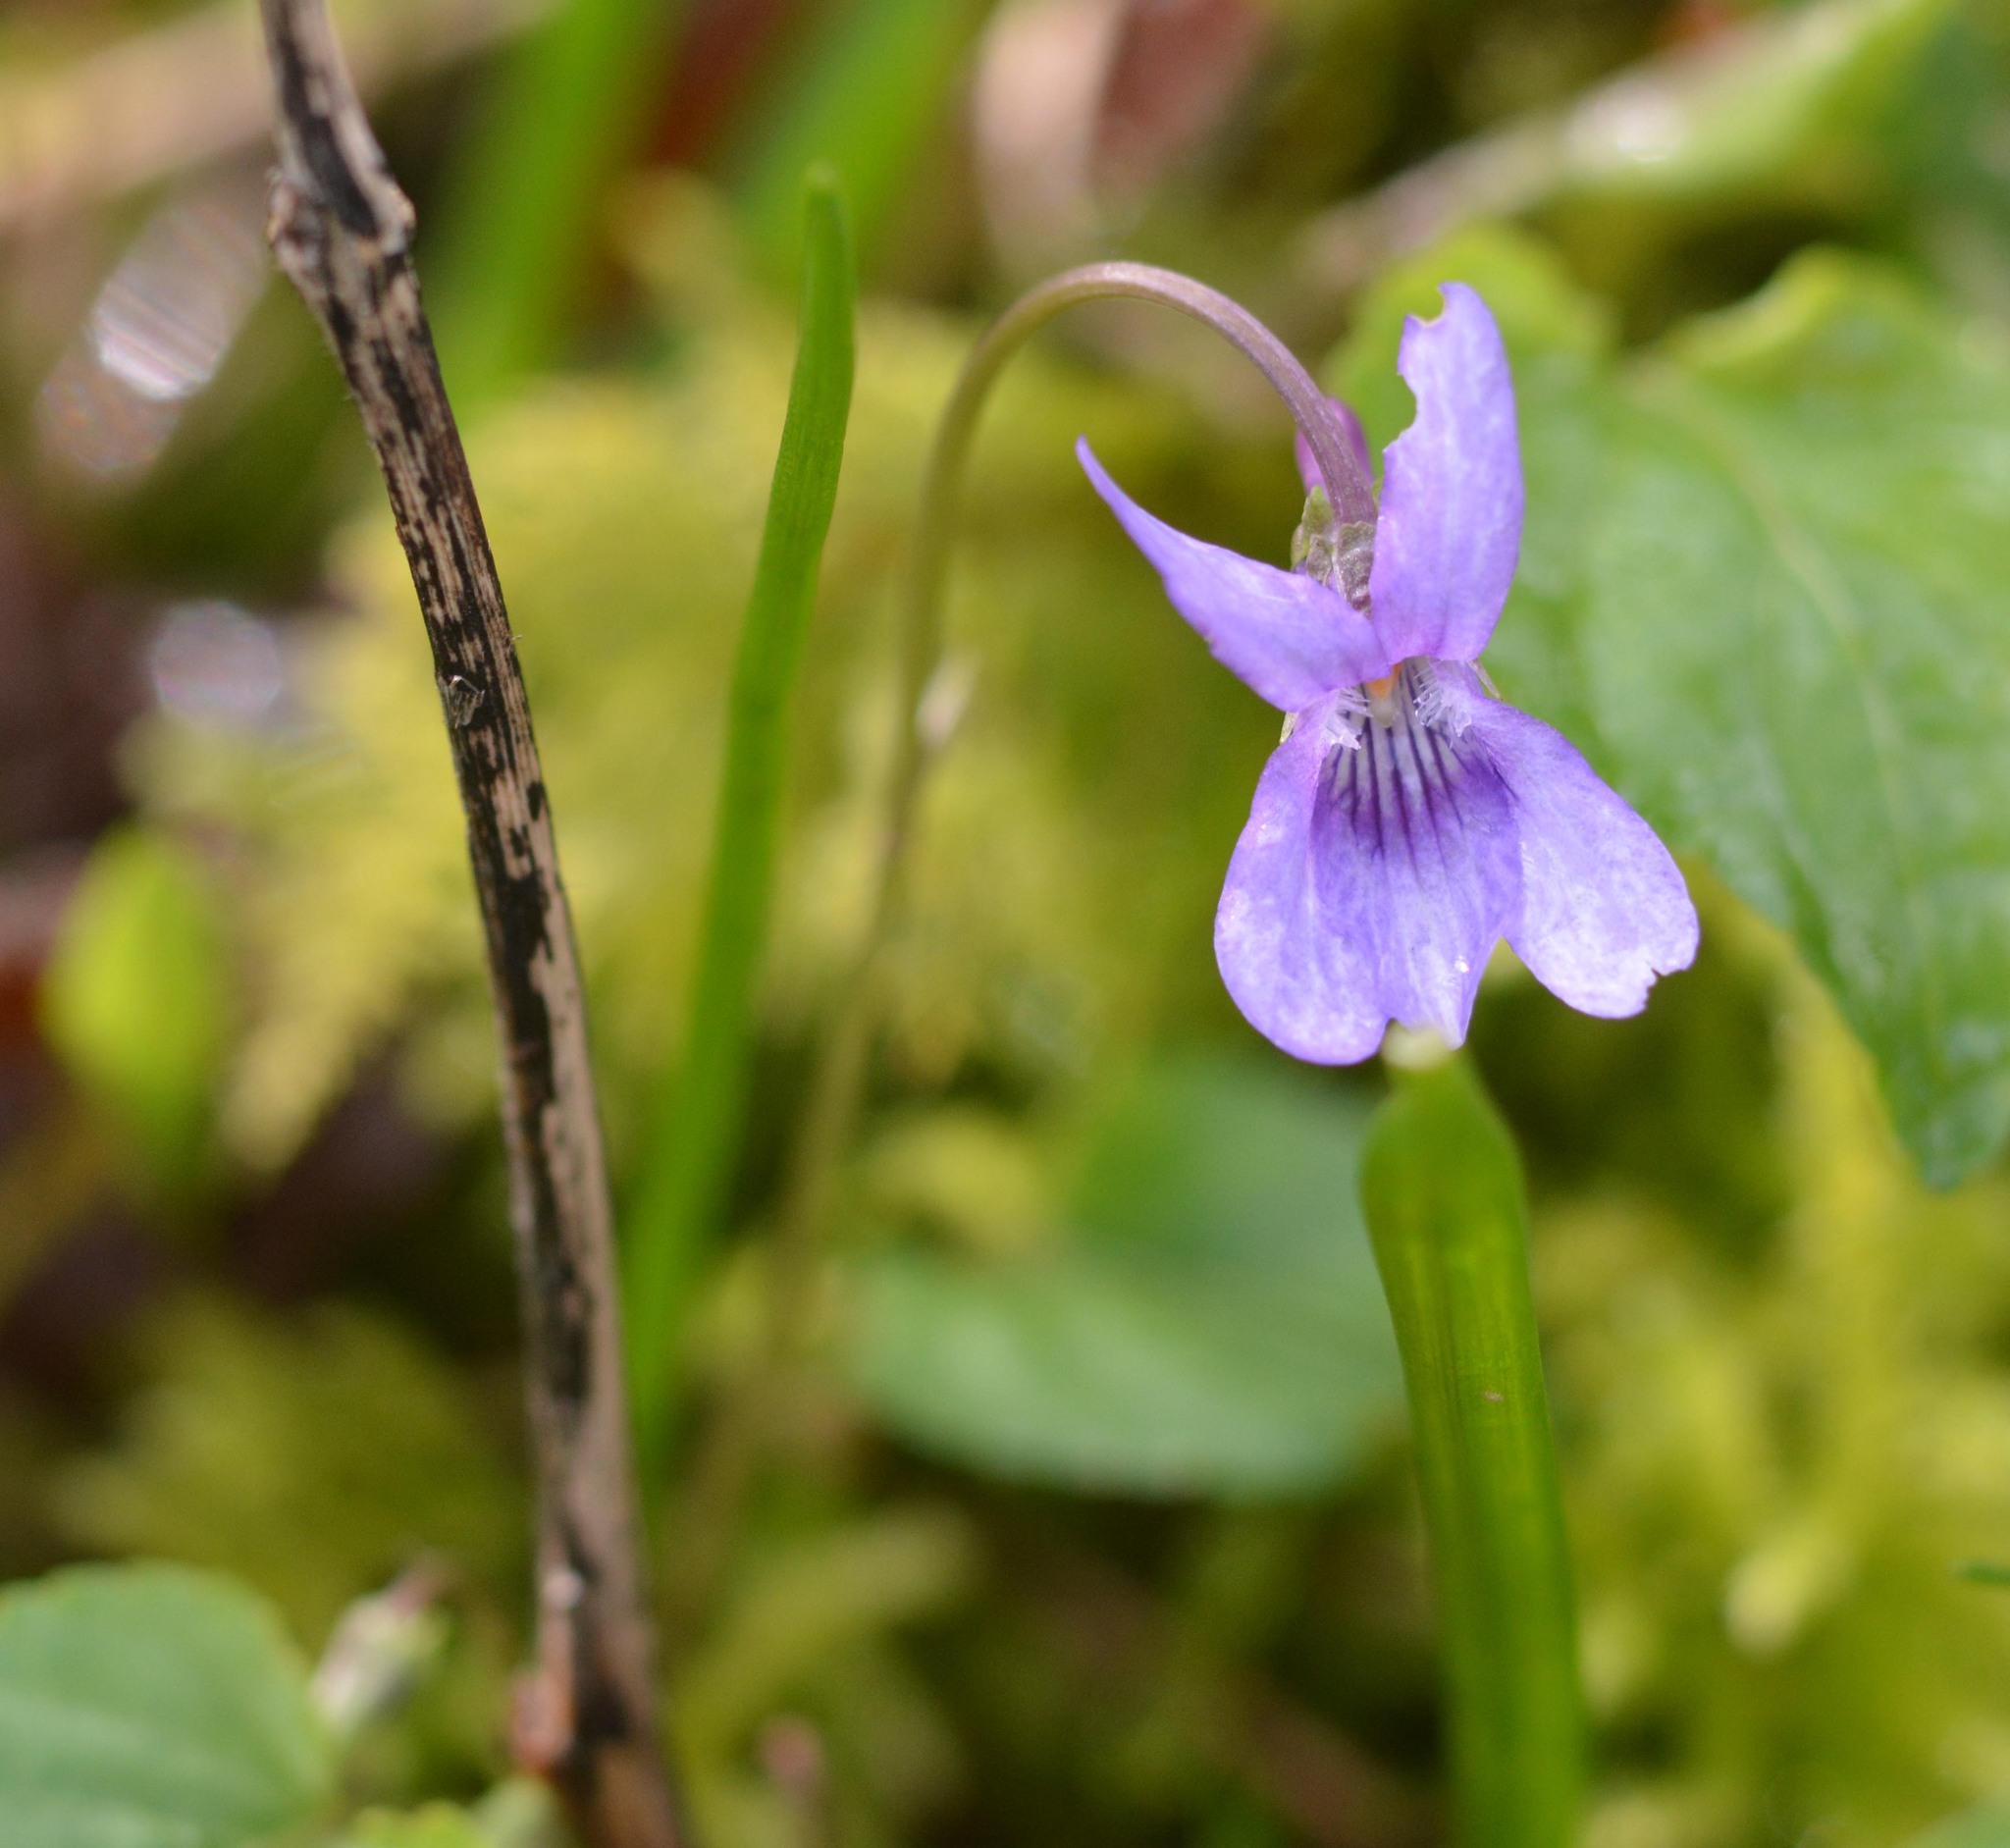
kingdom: Plantae
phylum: Tracheophyta
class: Magnoliopsida
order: Malpighiales
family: Violaceae
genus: Viola
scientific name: Viola reichenbachiana
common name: Early dog-violet
